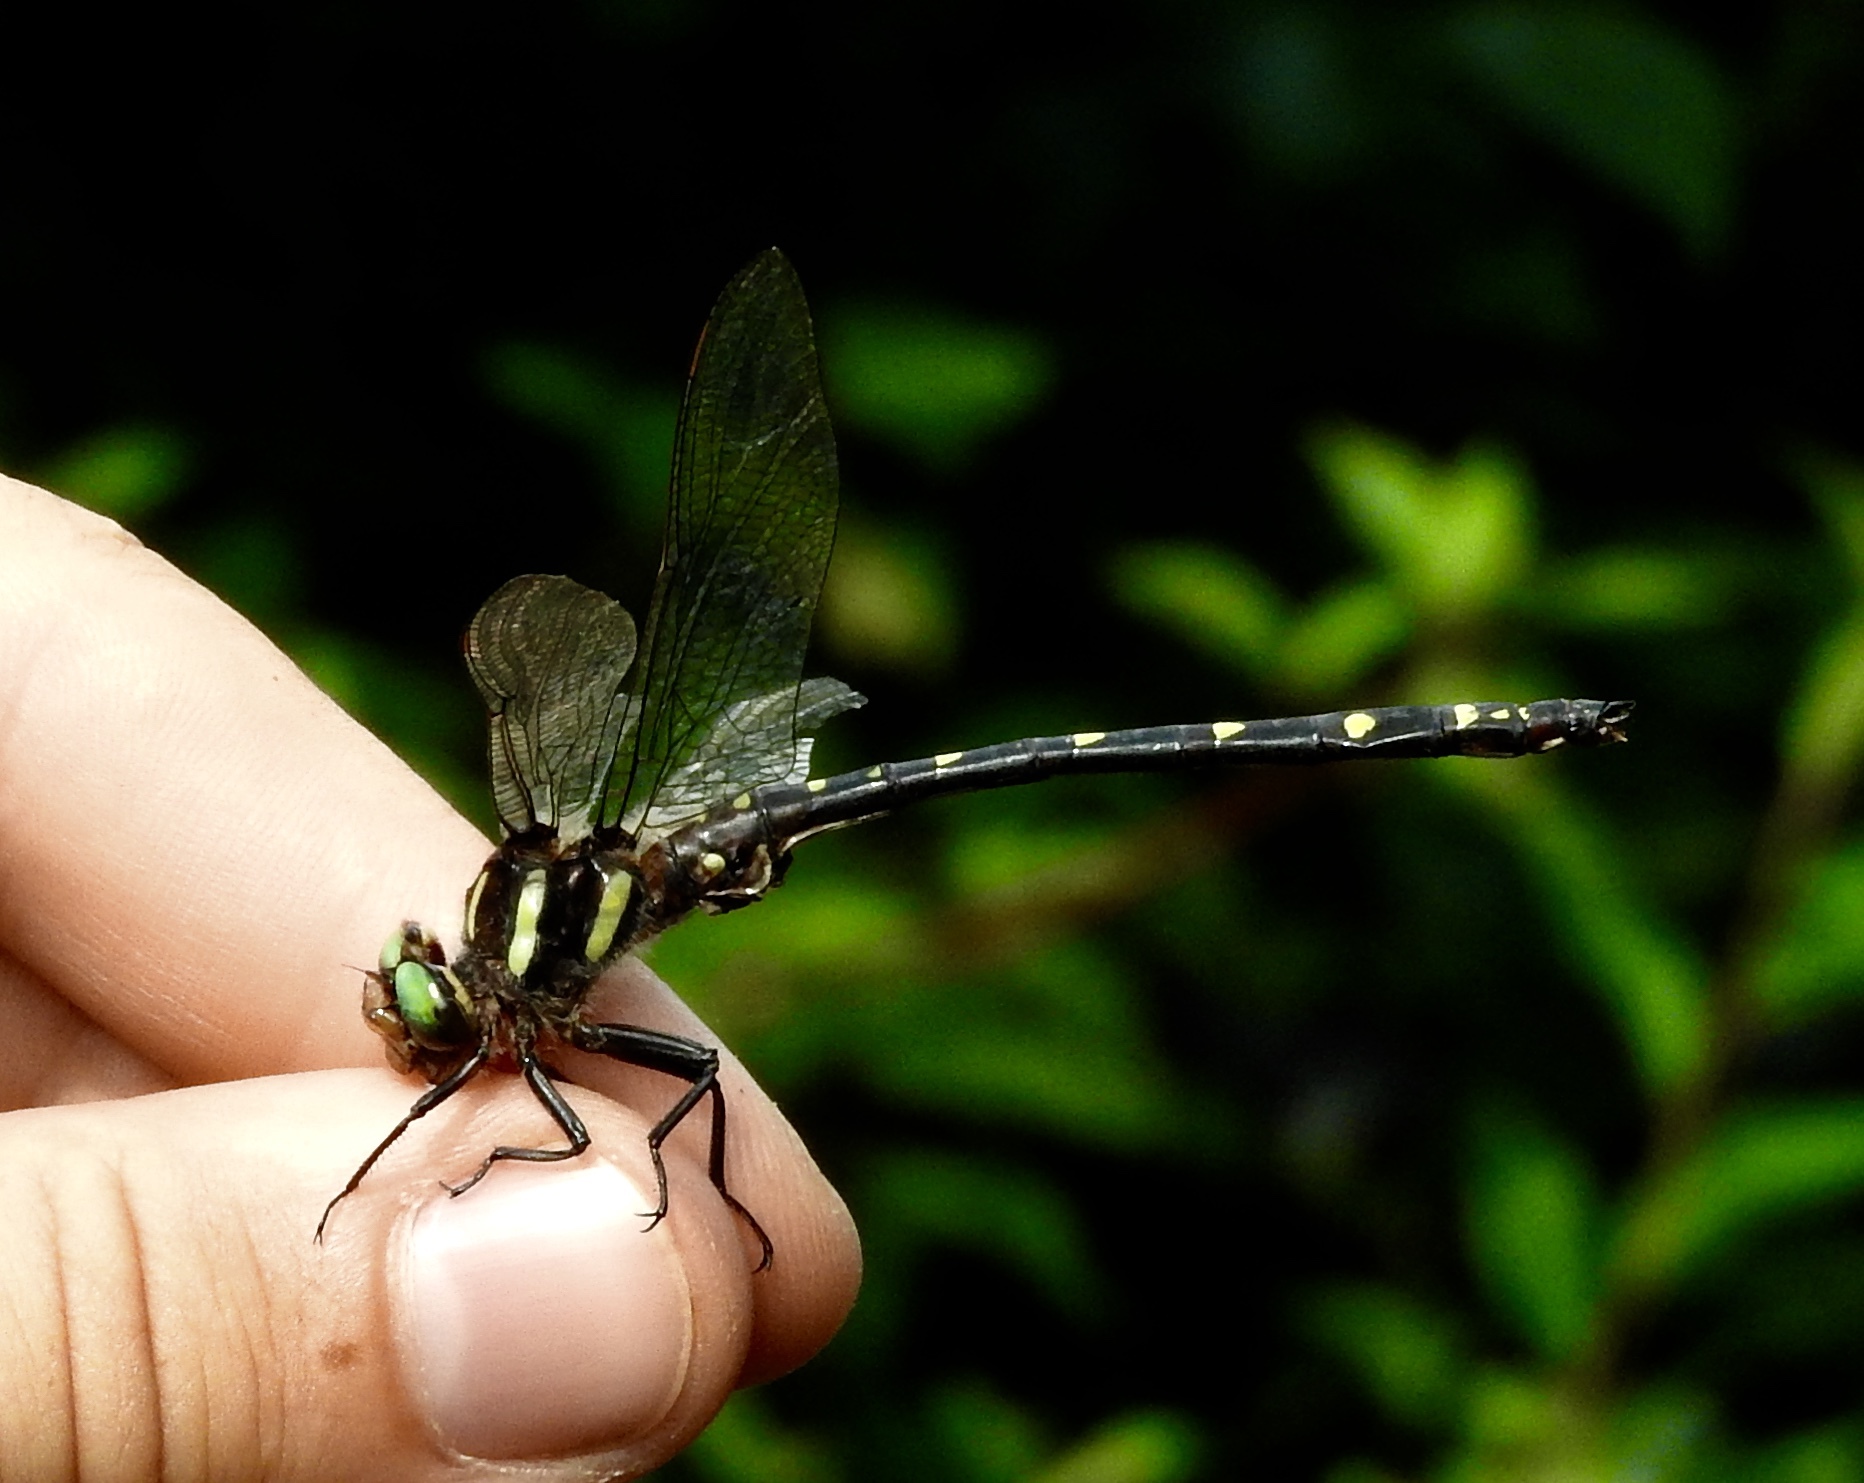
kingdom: Animalia
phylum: Arthropoda
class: Insecta
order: Odonata
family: Cordulegastridae
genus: Cordulegaster
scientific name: Cordulegaster maculata
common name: Twin-spotted spiketail
